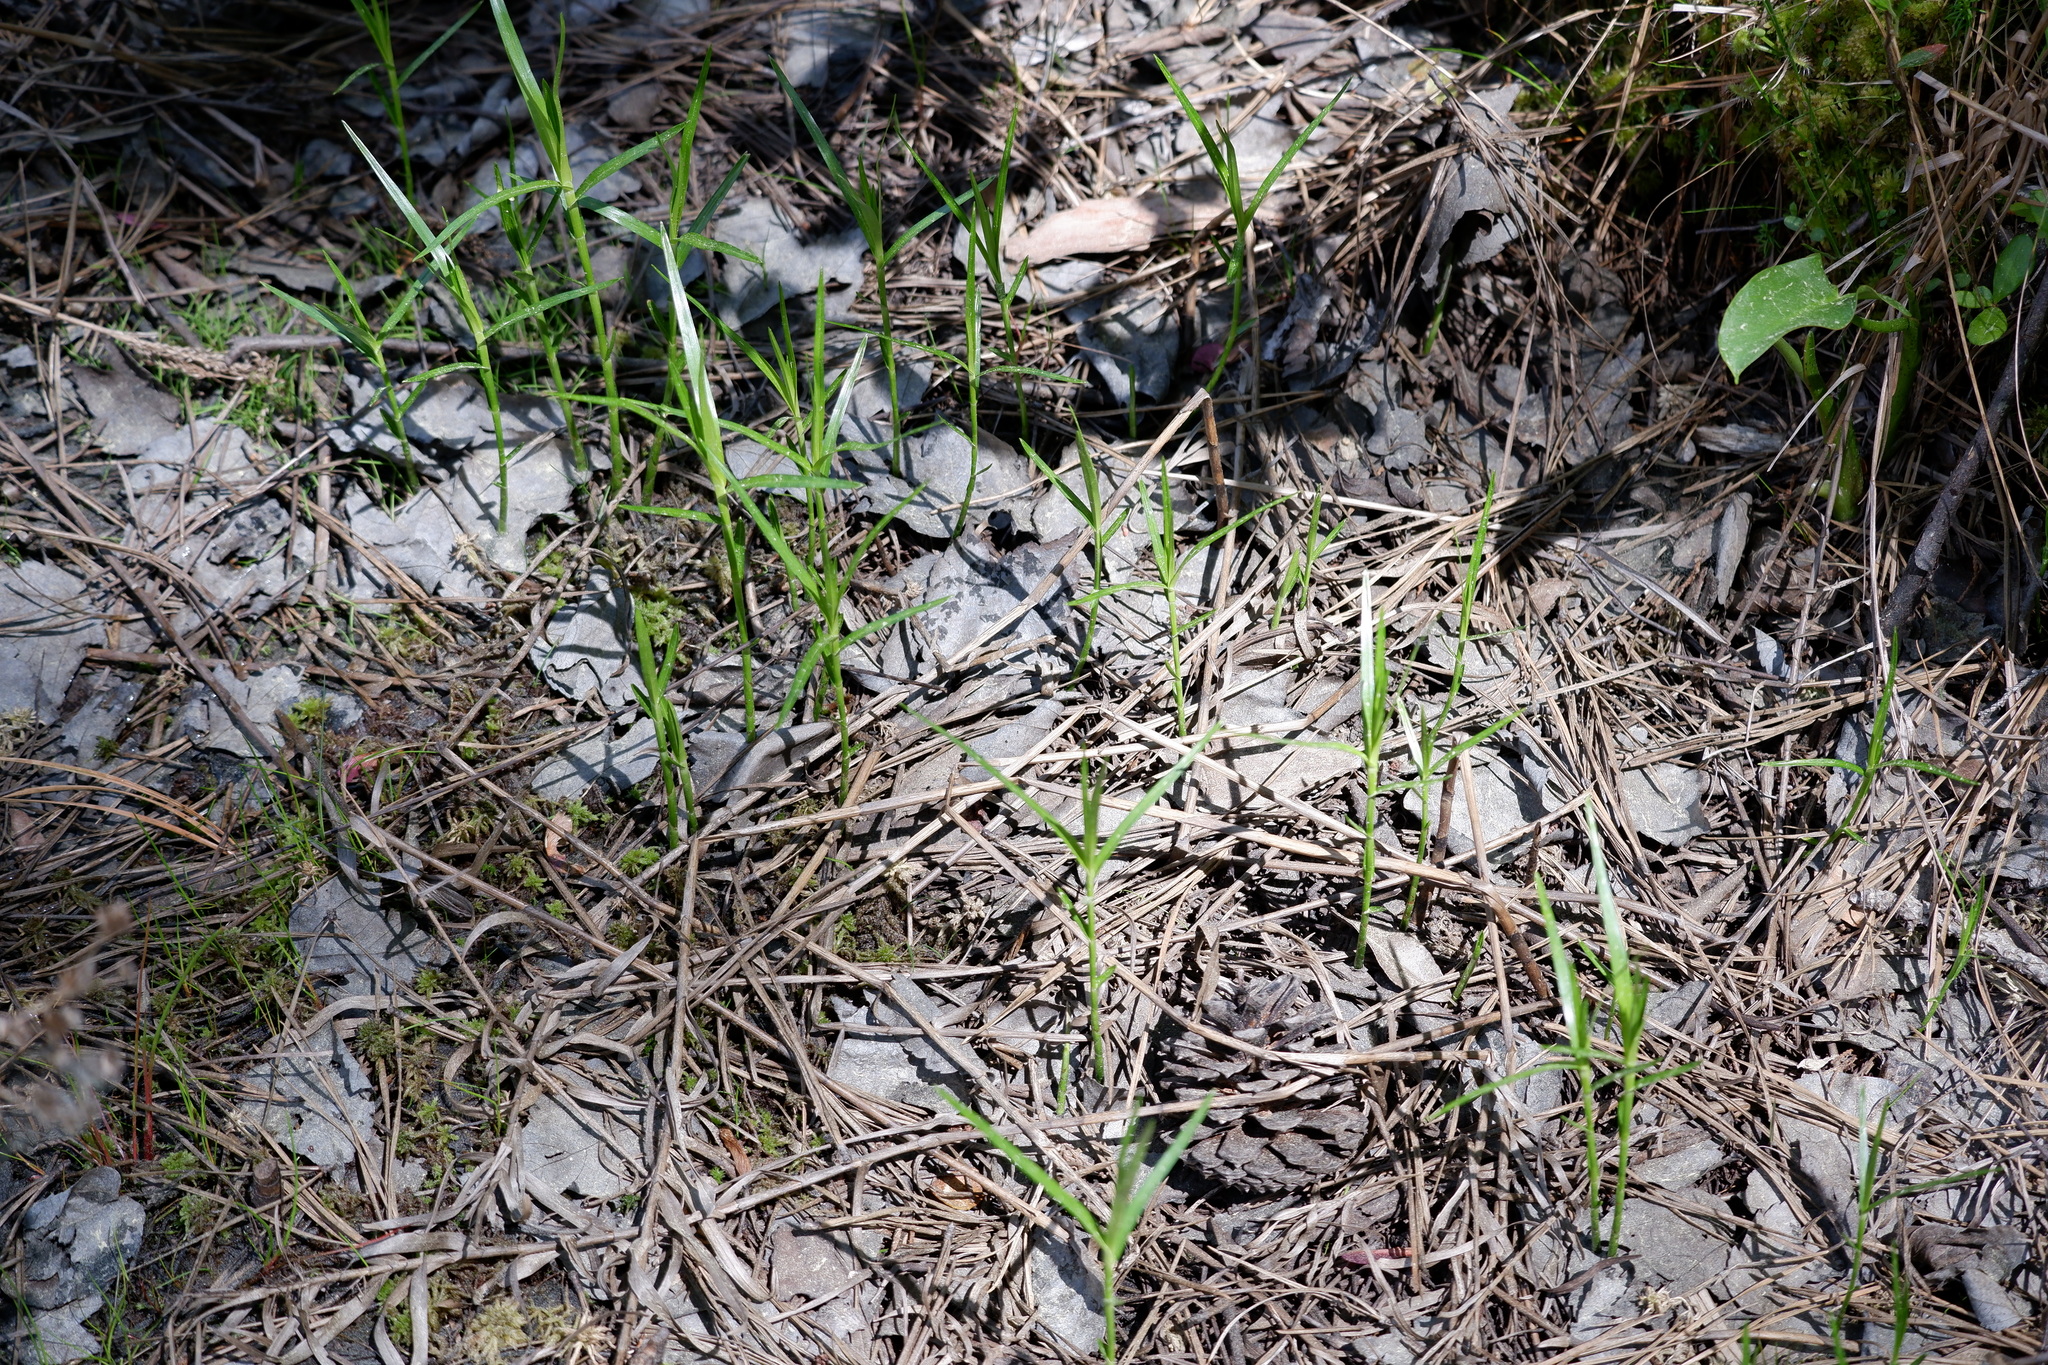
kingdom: Plantae
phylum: Tracheophyta
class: Liliopsida
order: Poales
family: Cyperaceae
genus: Dulichium
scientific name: Dulichium arundinaceum
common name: Three-way sedge
